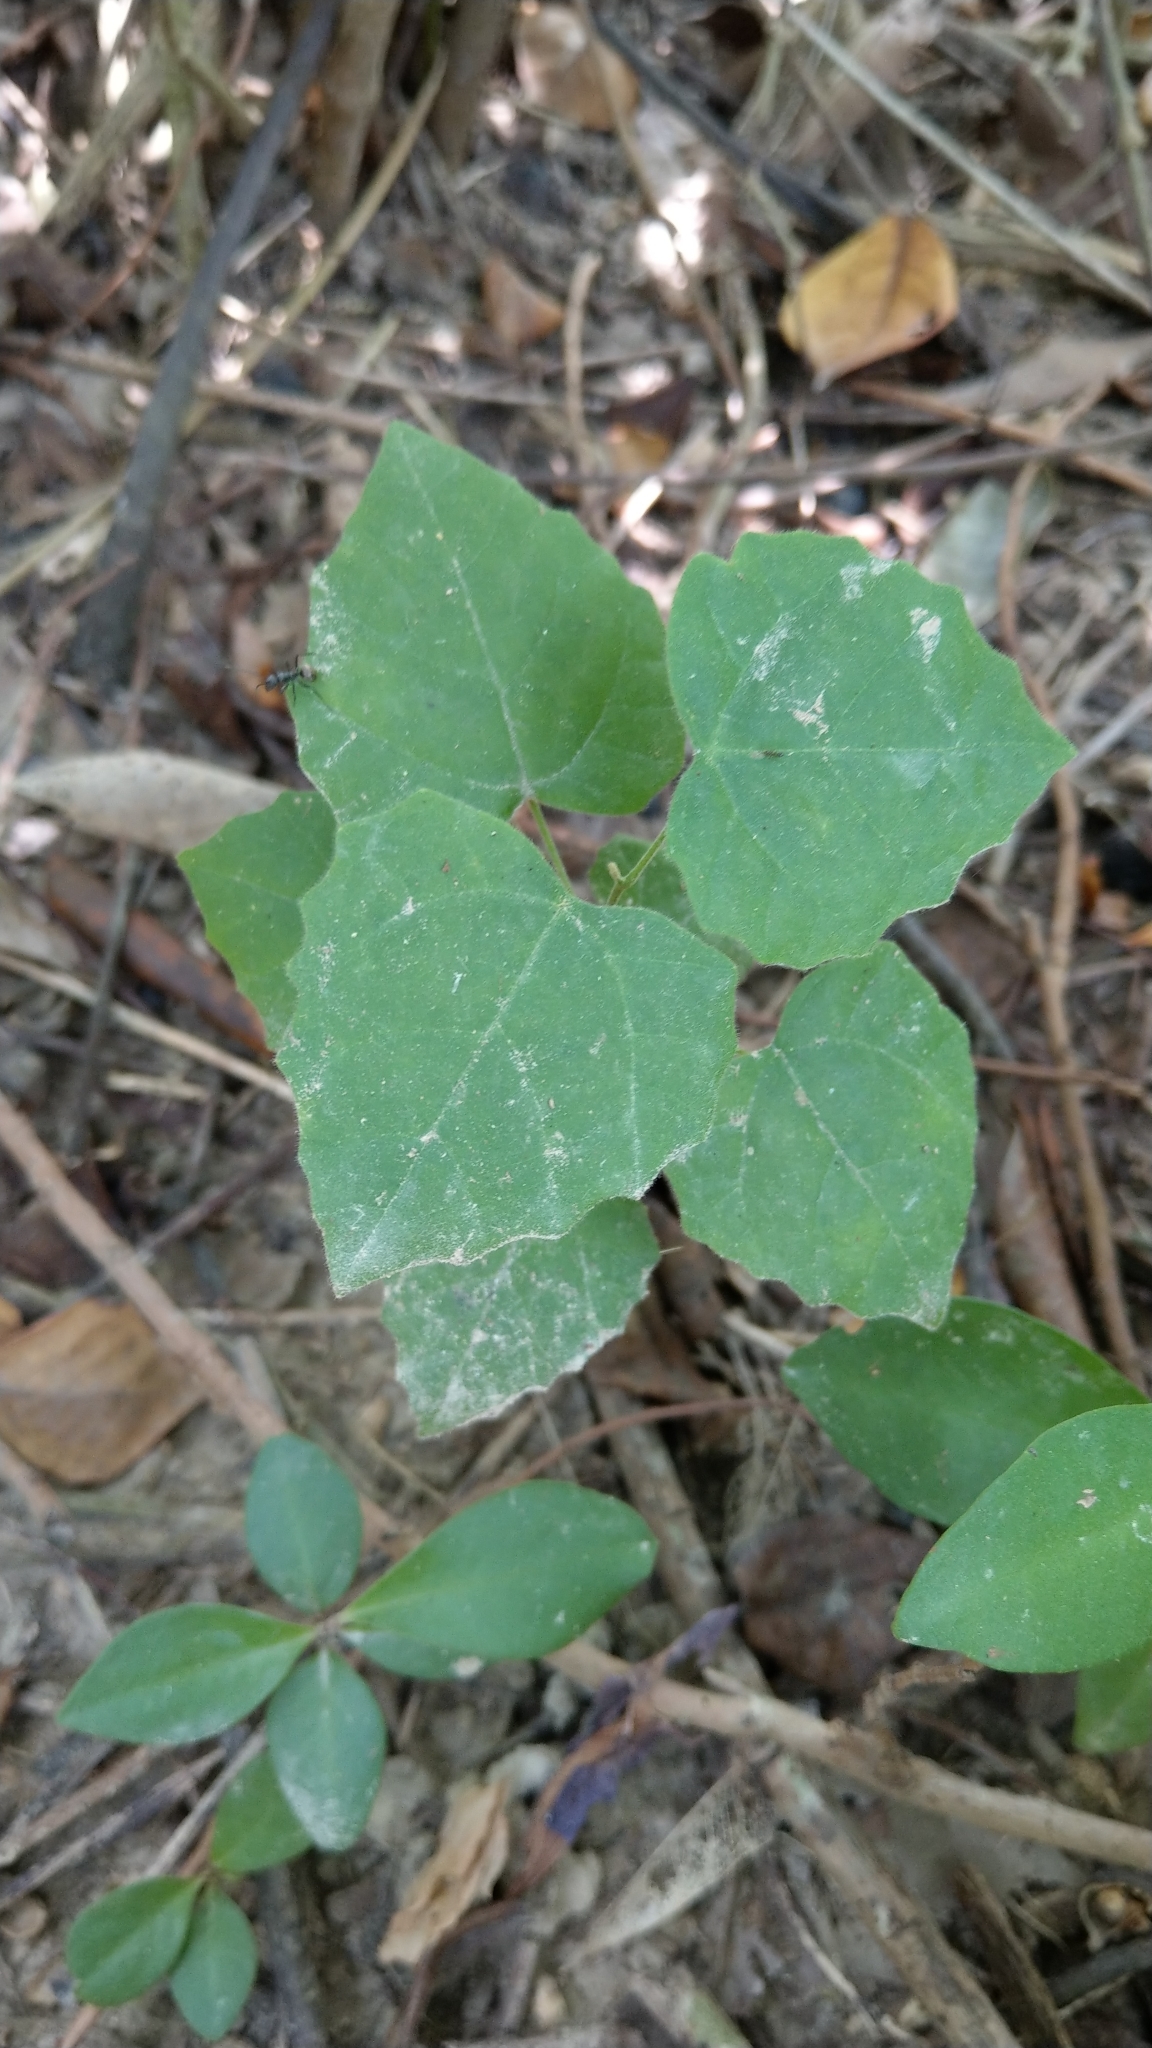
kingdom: Plantae
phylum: Tracheophyta
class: Magnoliopsida
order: Malpighiales
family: Euphorbiaceae
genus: Mallotus
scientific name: Mallotus repandus
